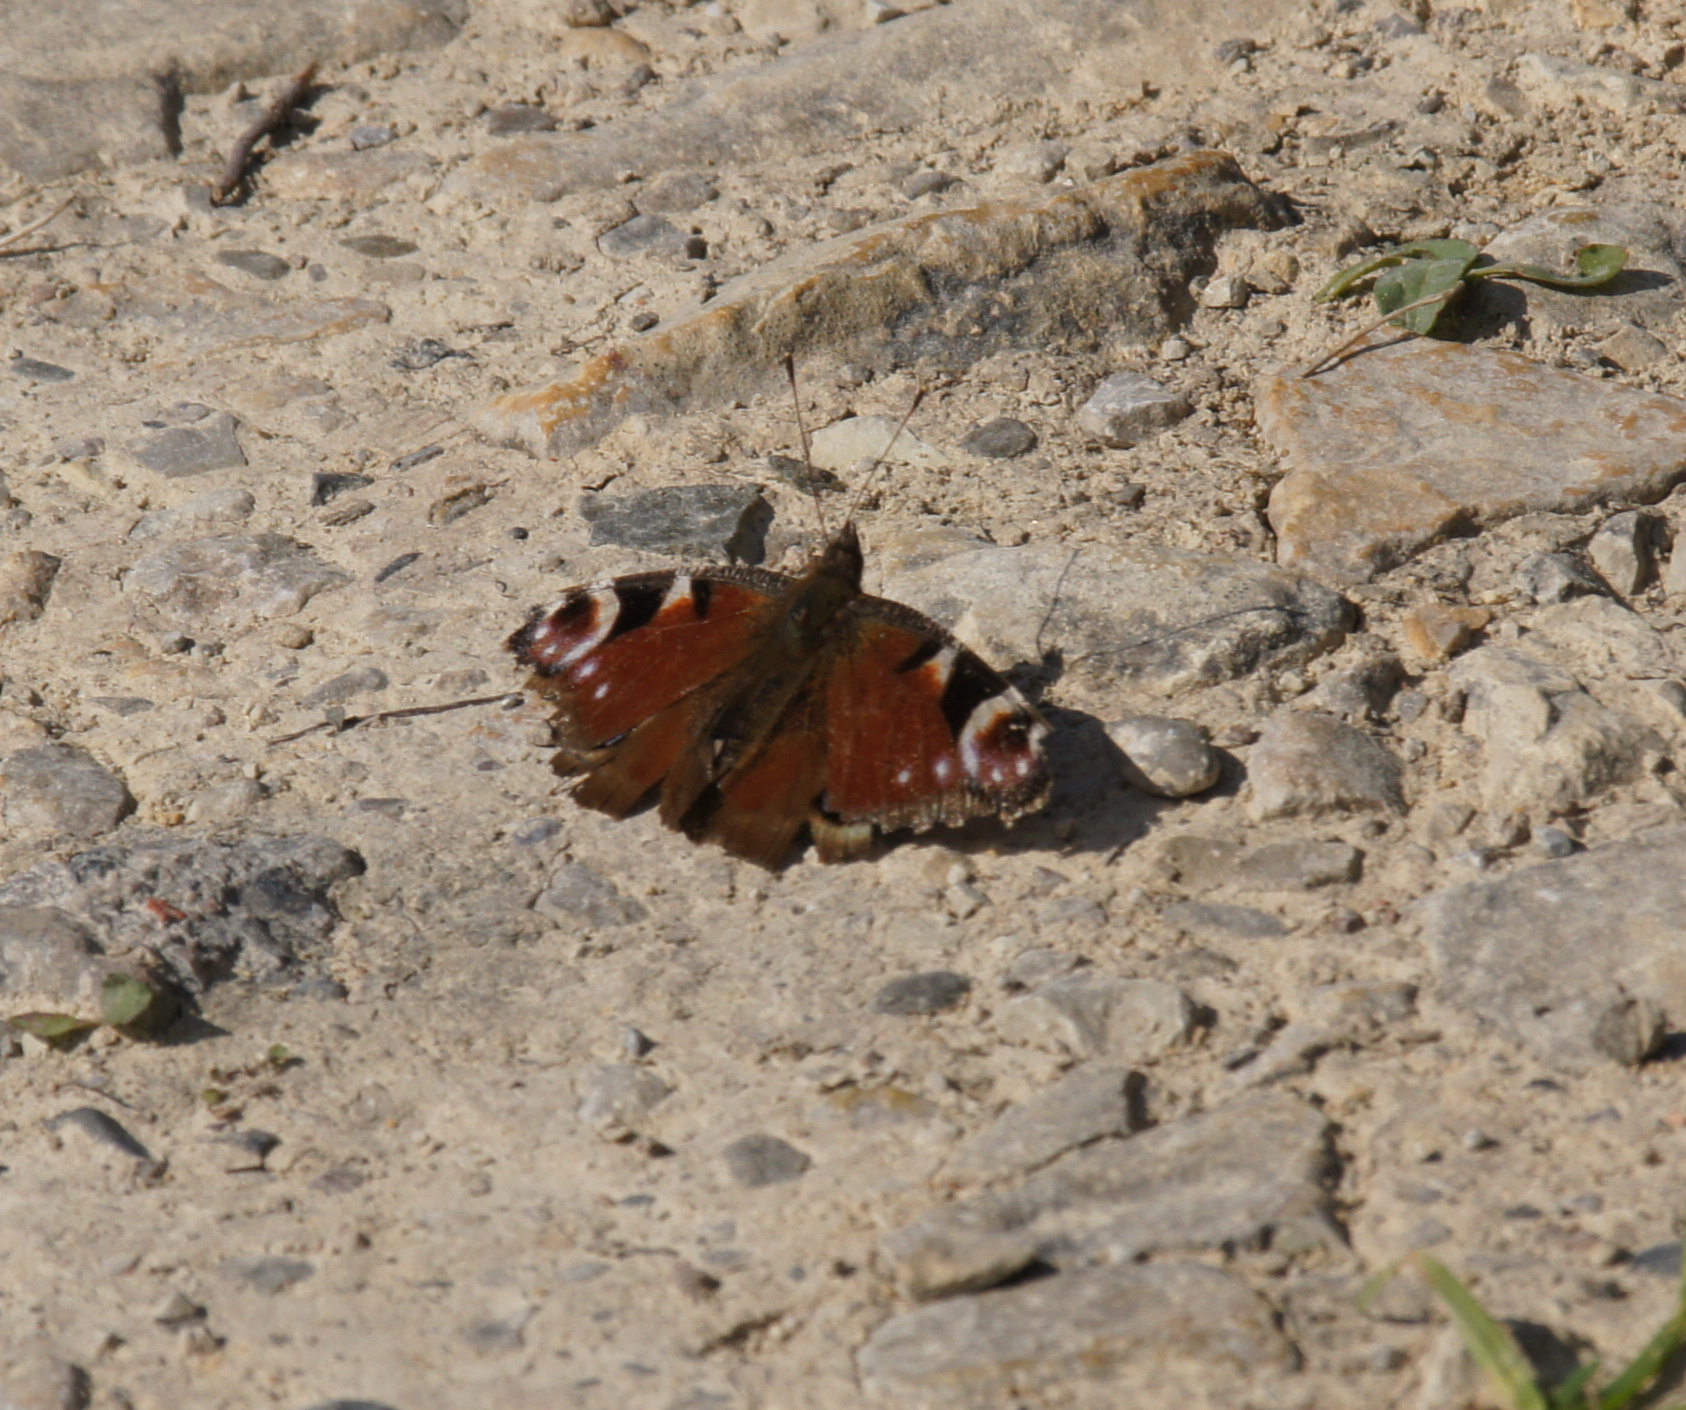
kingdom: Animalia
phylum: Arthropoda
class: Insecta
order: Lepidoptera
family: Nymphalidae
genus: Aglais
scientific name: Aglais io
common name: Peacock
